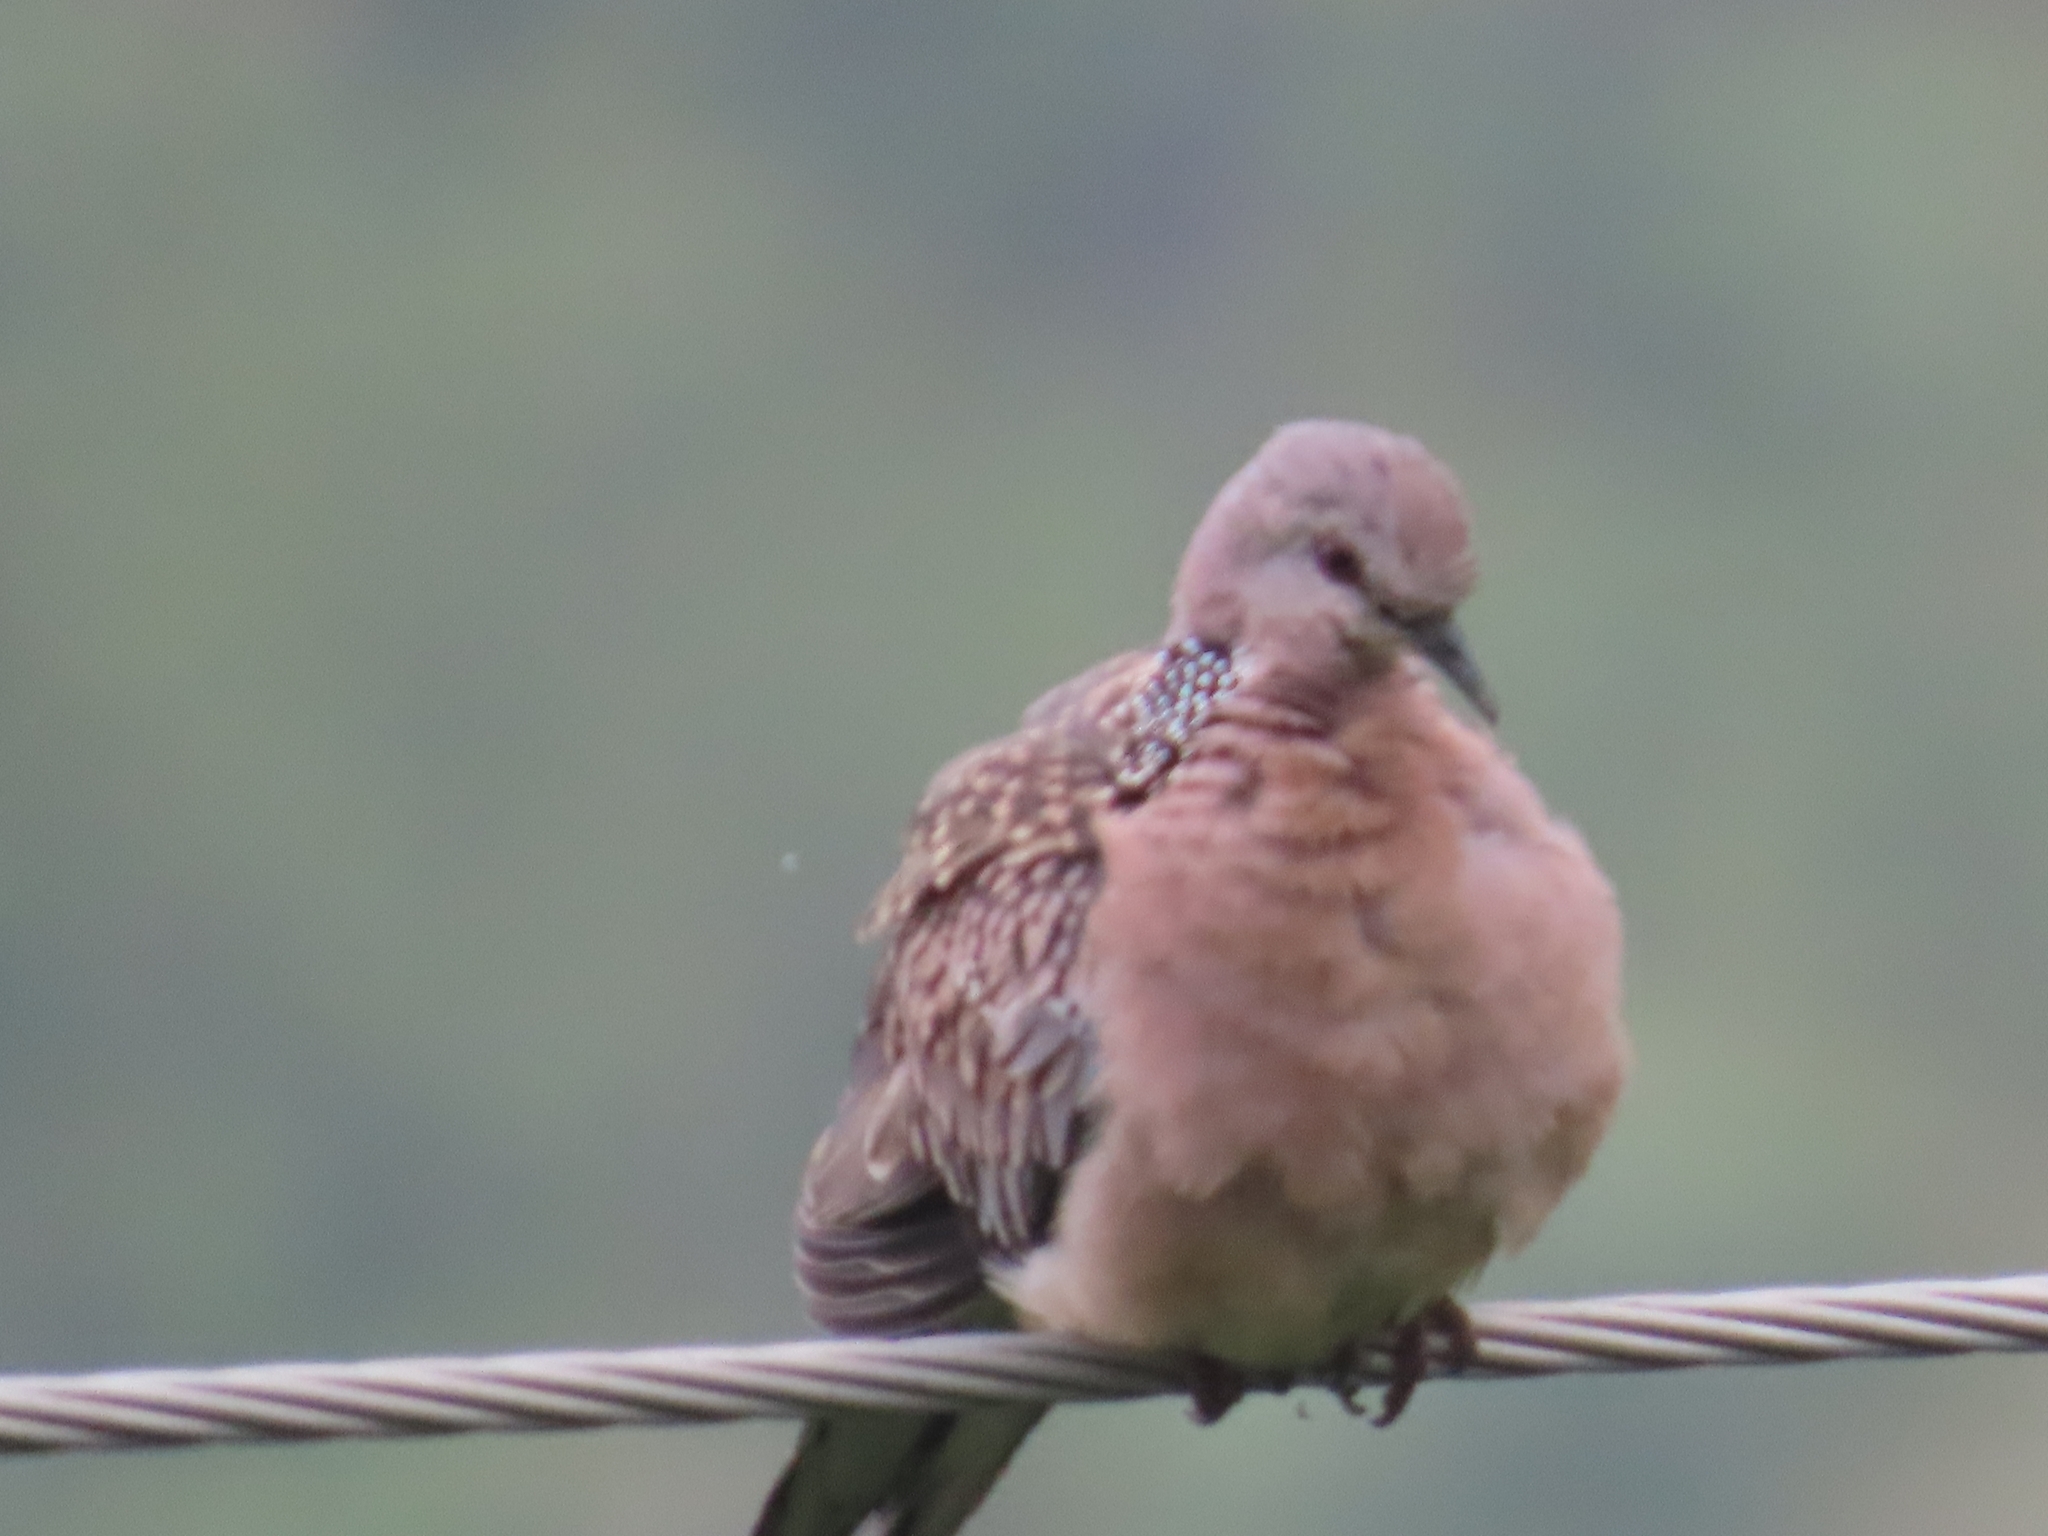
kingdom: Animalia
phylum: Chordata
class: Aves
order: Columbiformes
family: Columbidae
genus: Streptopelia
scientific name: Streptopelia orientalis
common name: Oriental turtle dove
